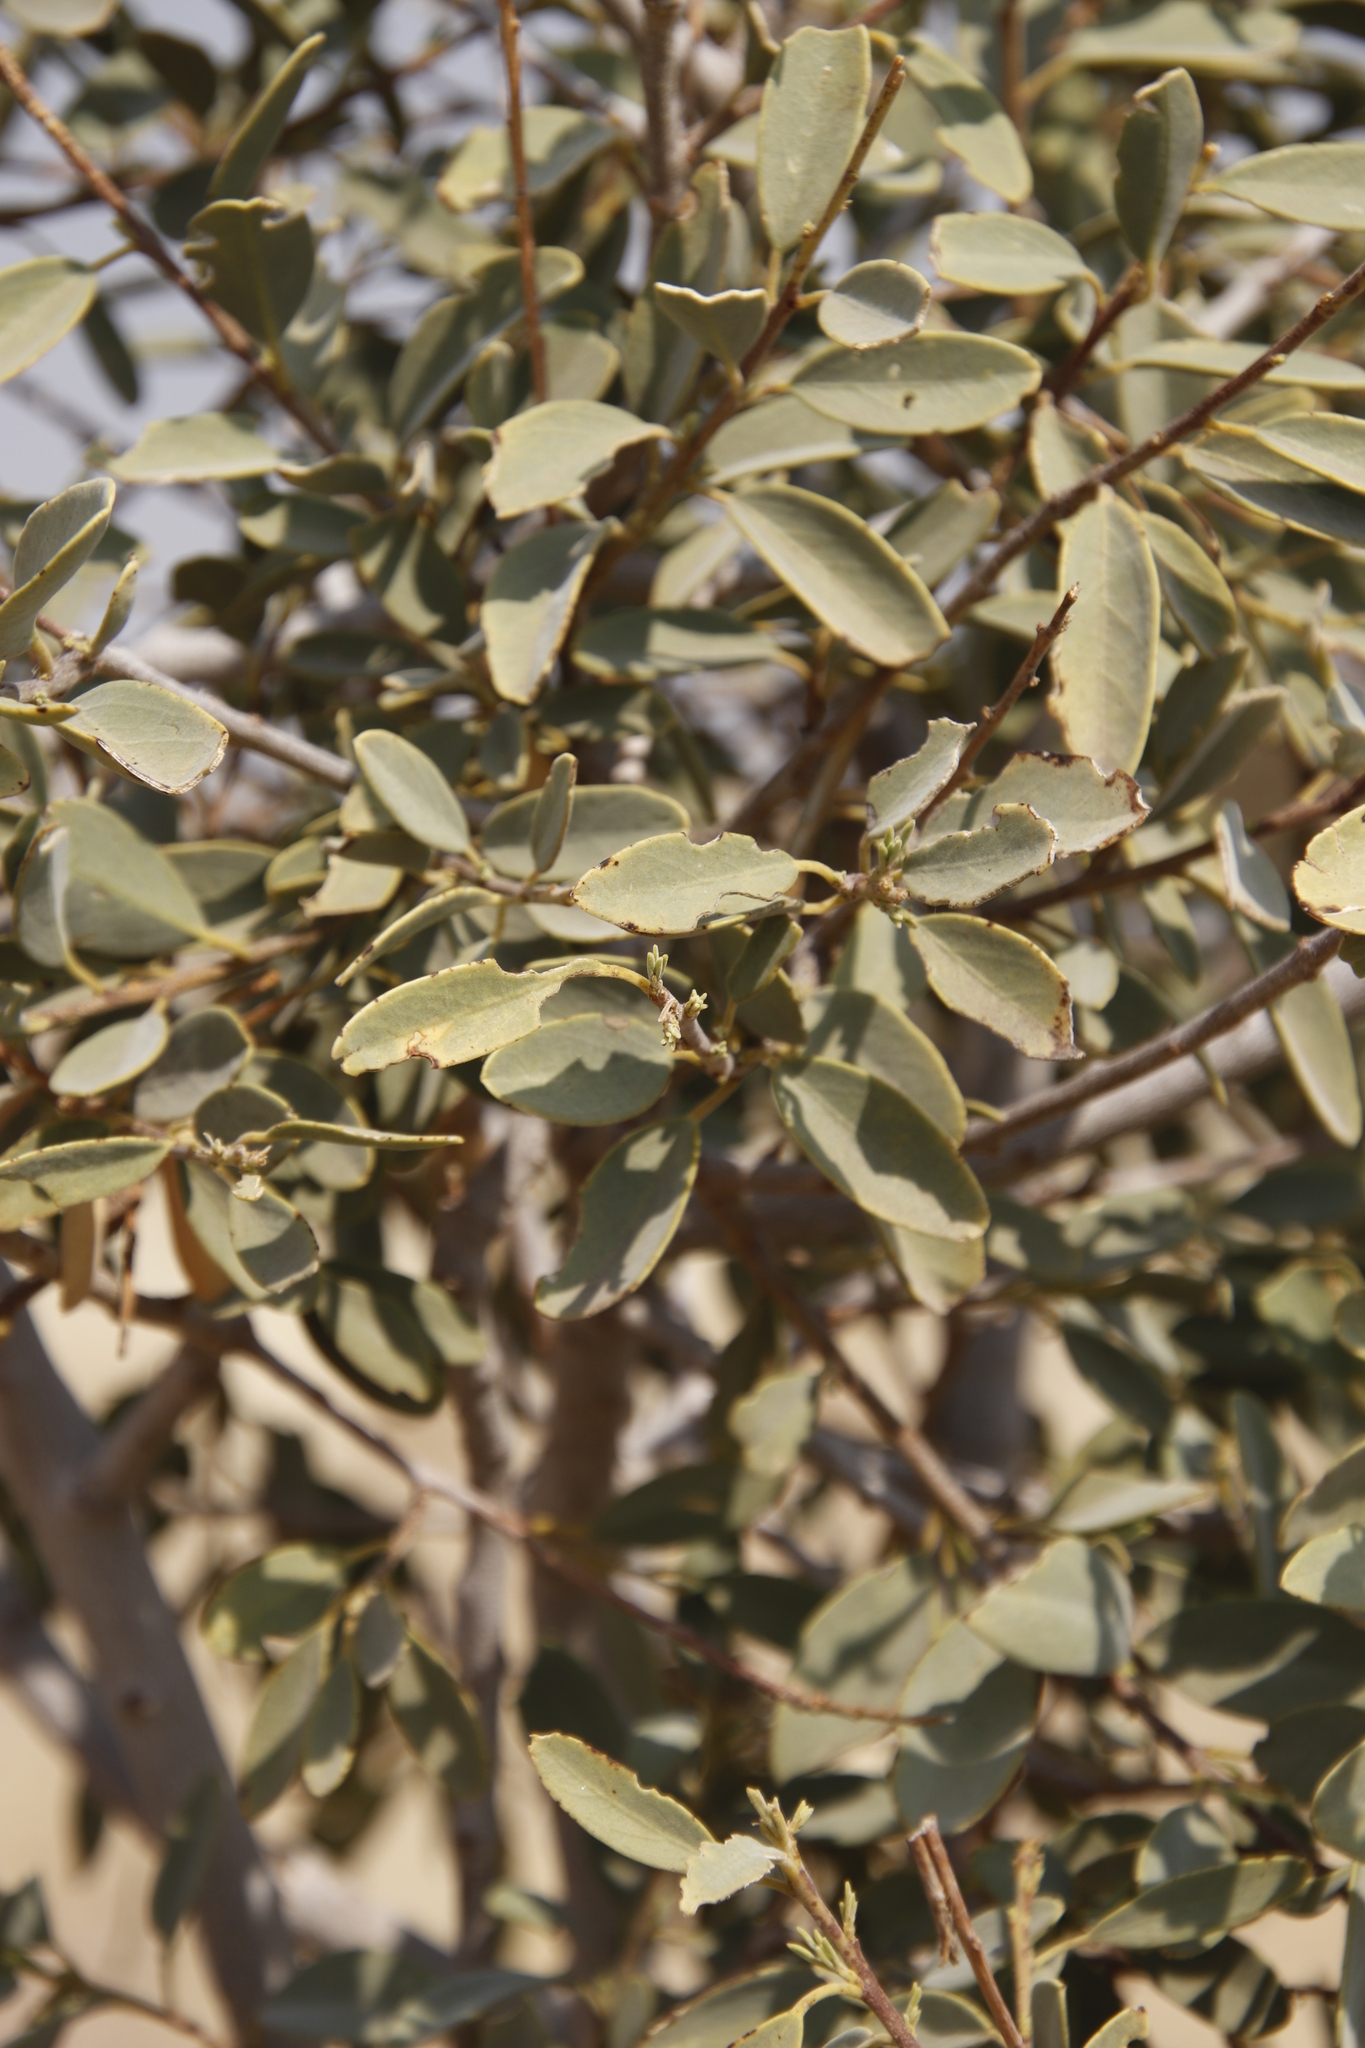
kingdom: Plantae
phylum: Tracheophyta
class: Magnoliopsida
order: Brassicales
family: Capparaceae
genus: Maerua
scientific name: Maerua schinzii
